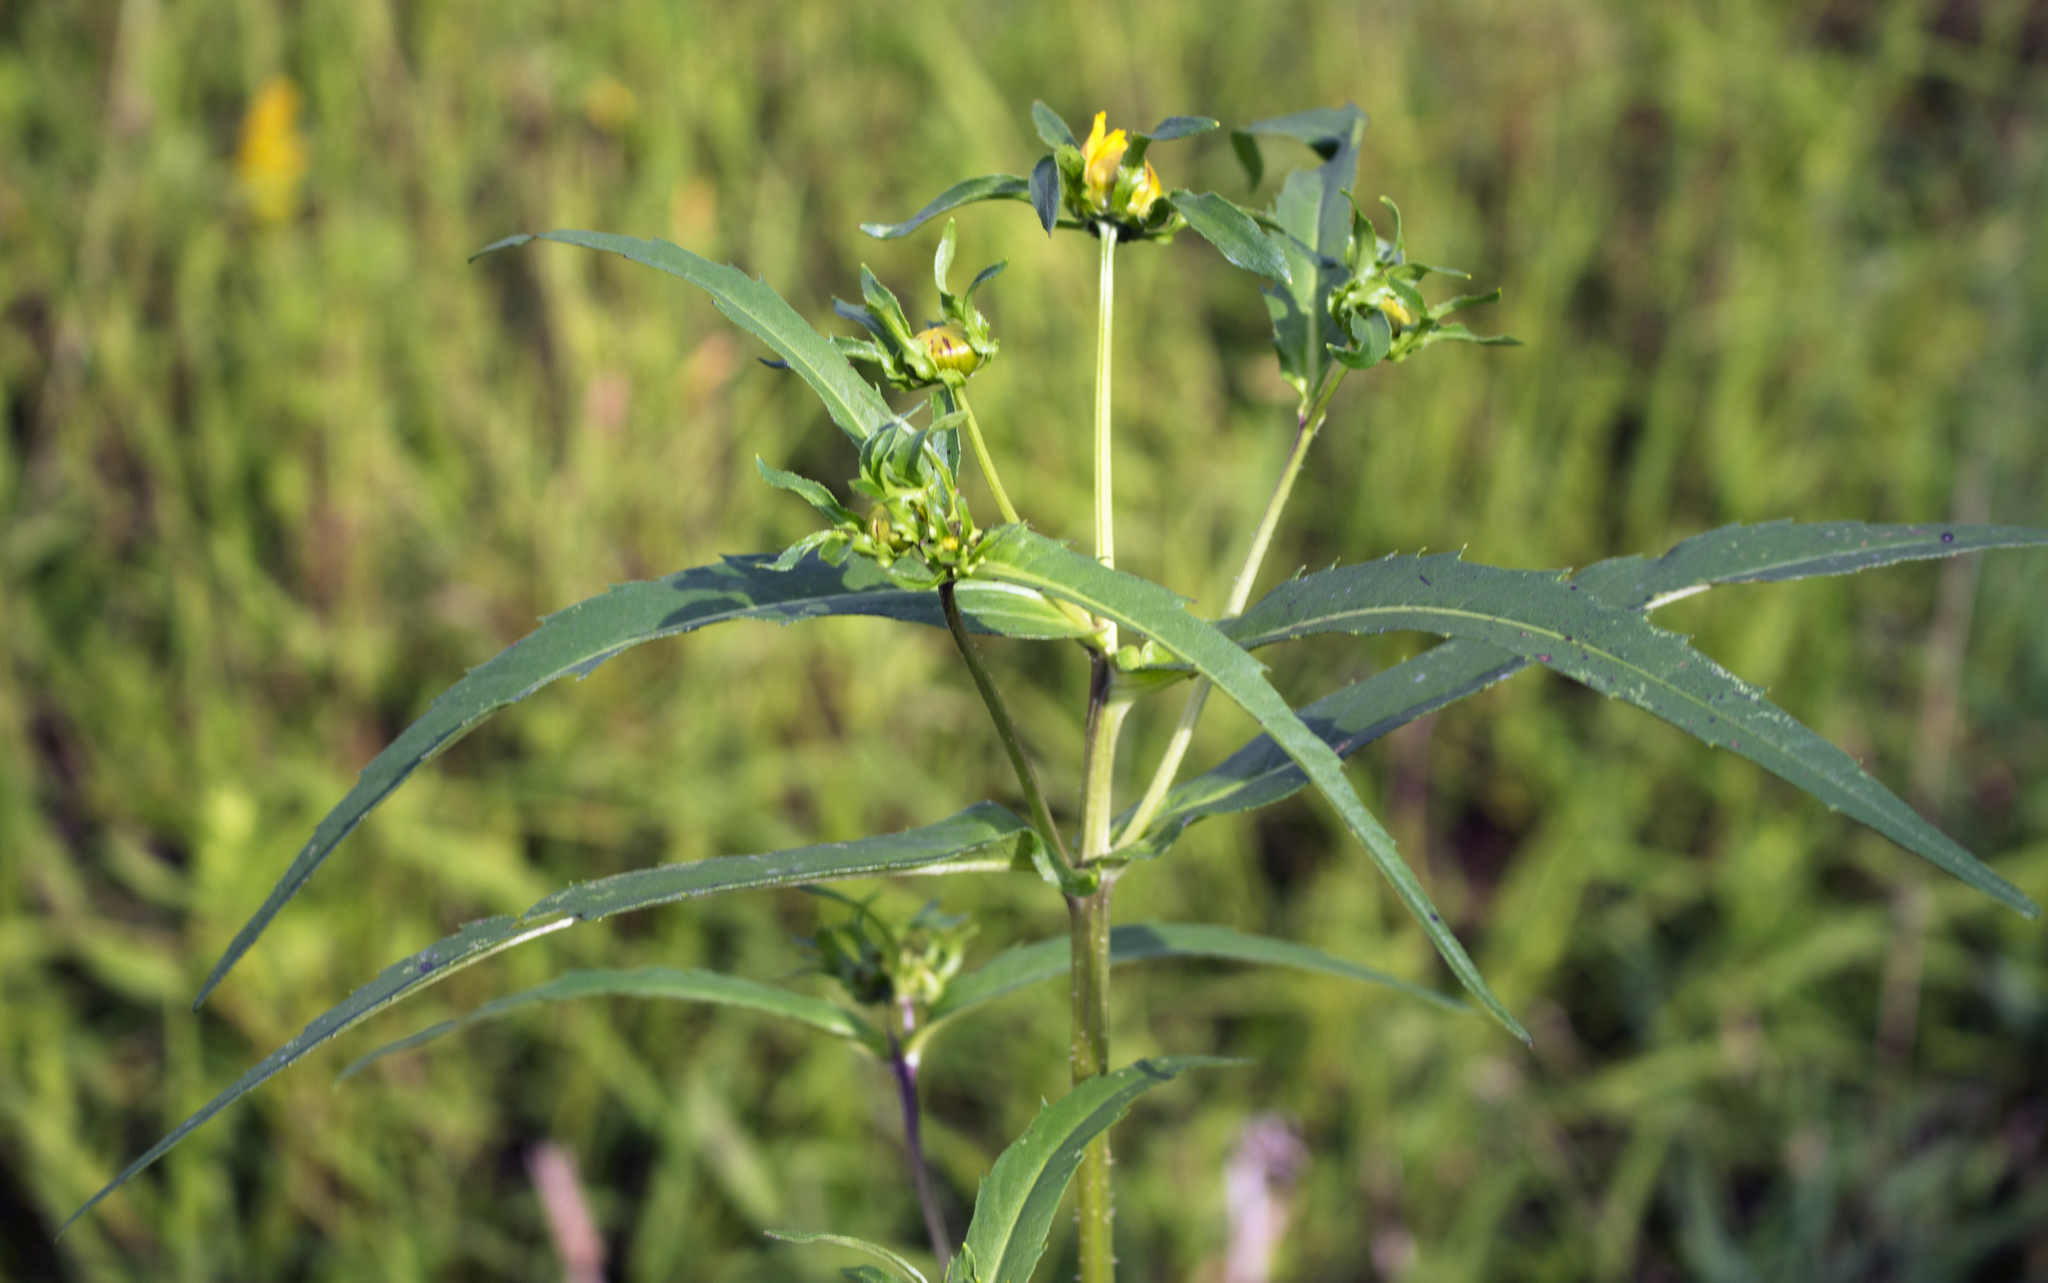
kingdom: Plantae
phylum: Tracheophyta
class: Magnoliopsida
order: Asterales
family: Asteraceae
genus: Bidens
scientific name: Bidens cernua
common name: Nodding bur-marigold
